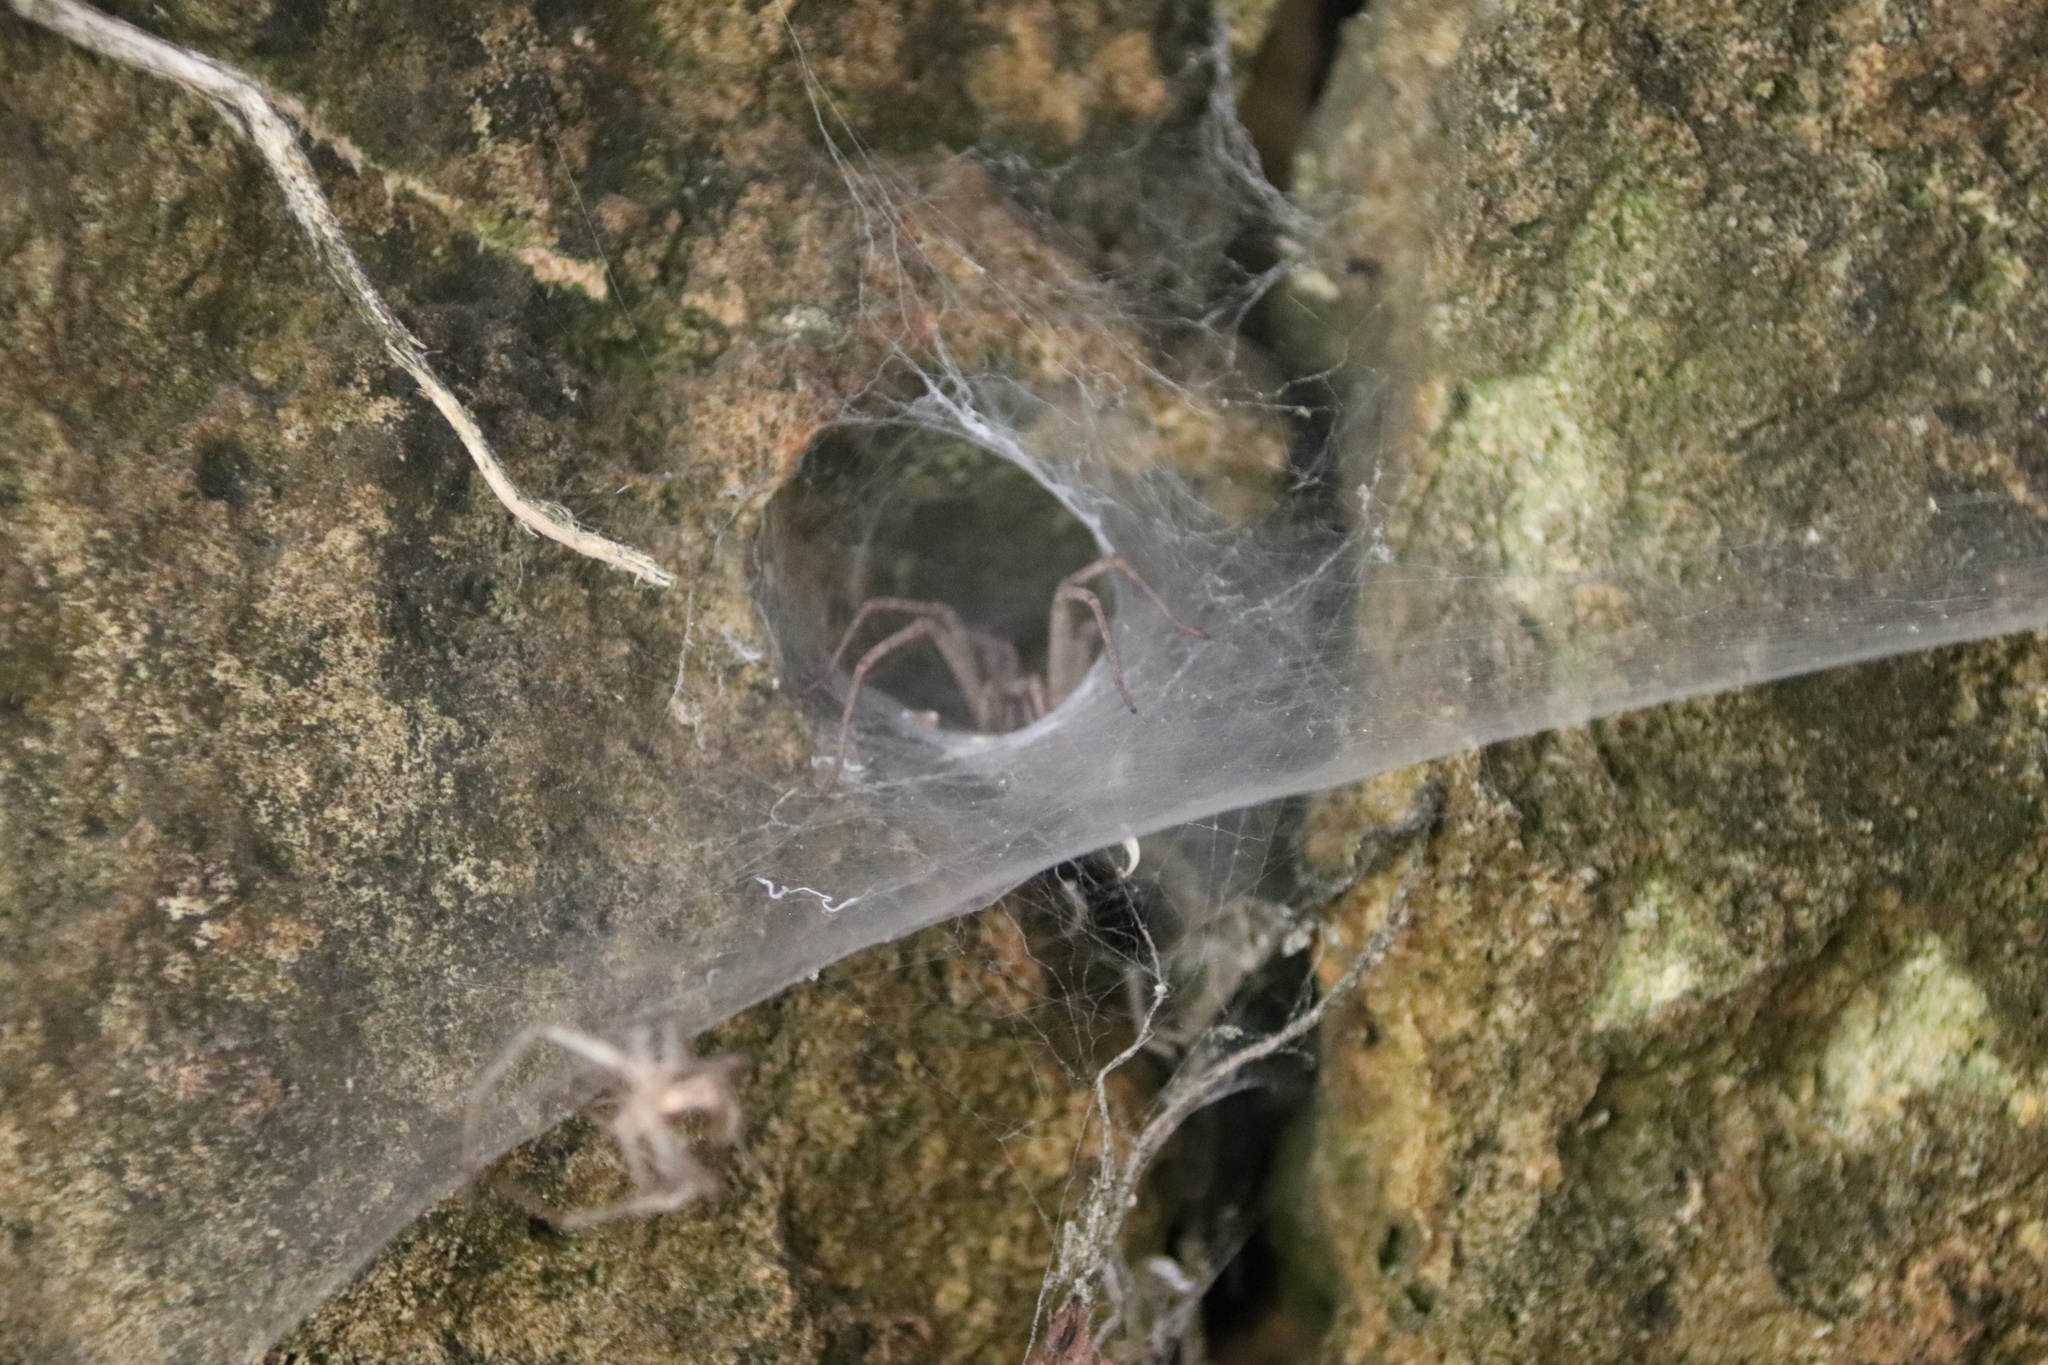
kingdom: Animalia
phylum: Arthropoda
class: Arachnida
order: Araneae
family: Agelenidae
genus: Agelena
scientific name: Agelena orientalis
